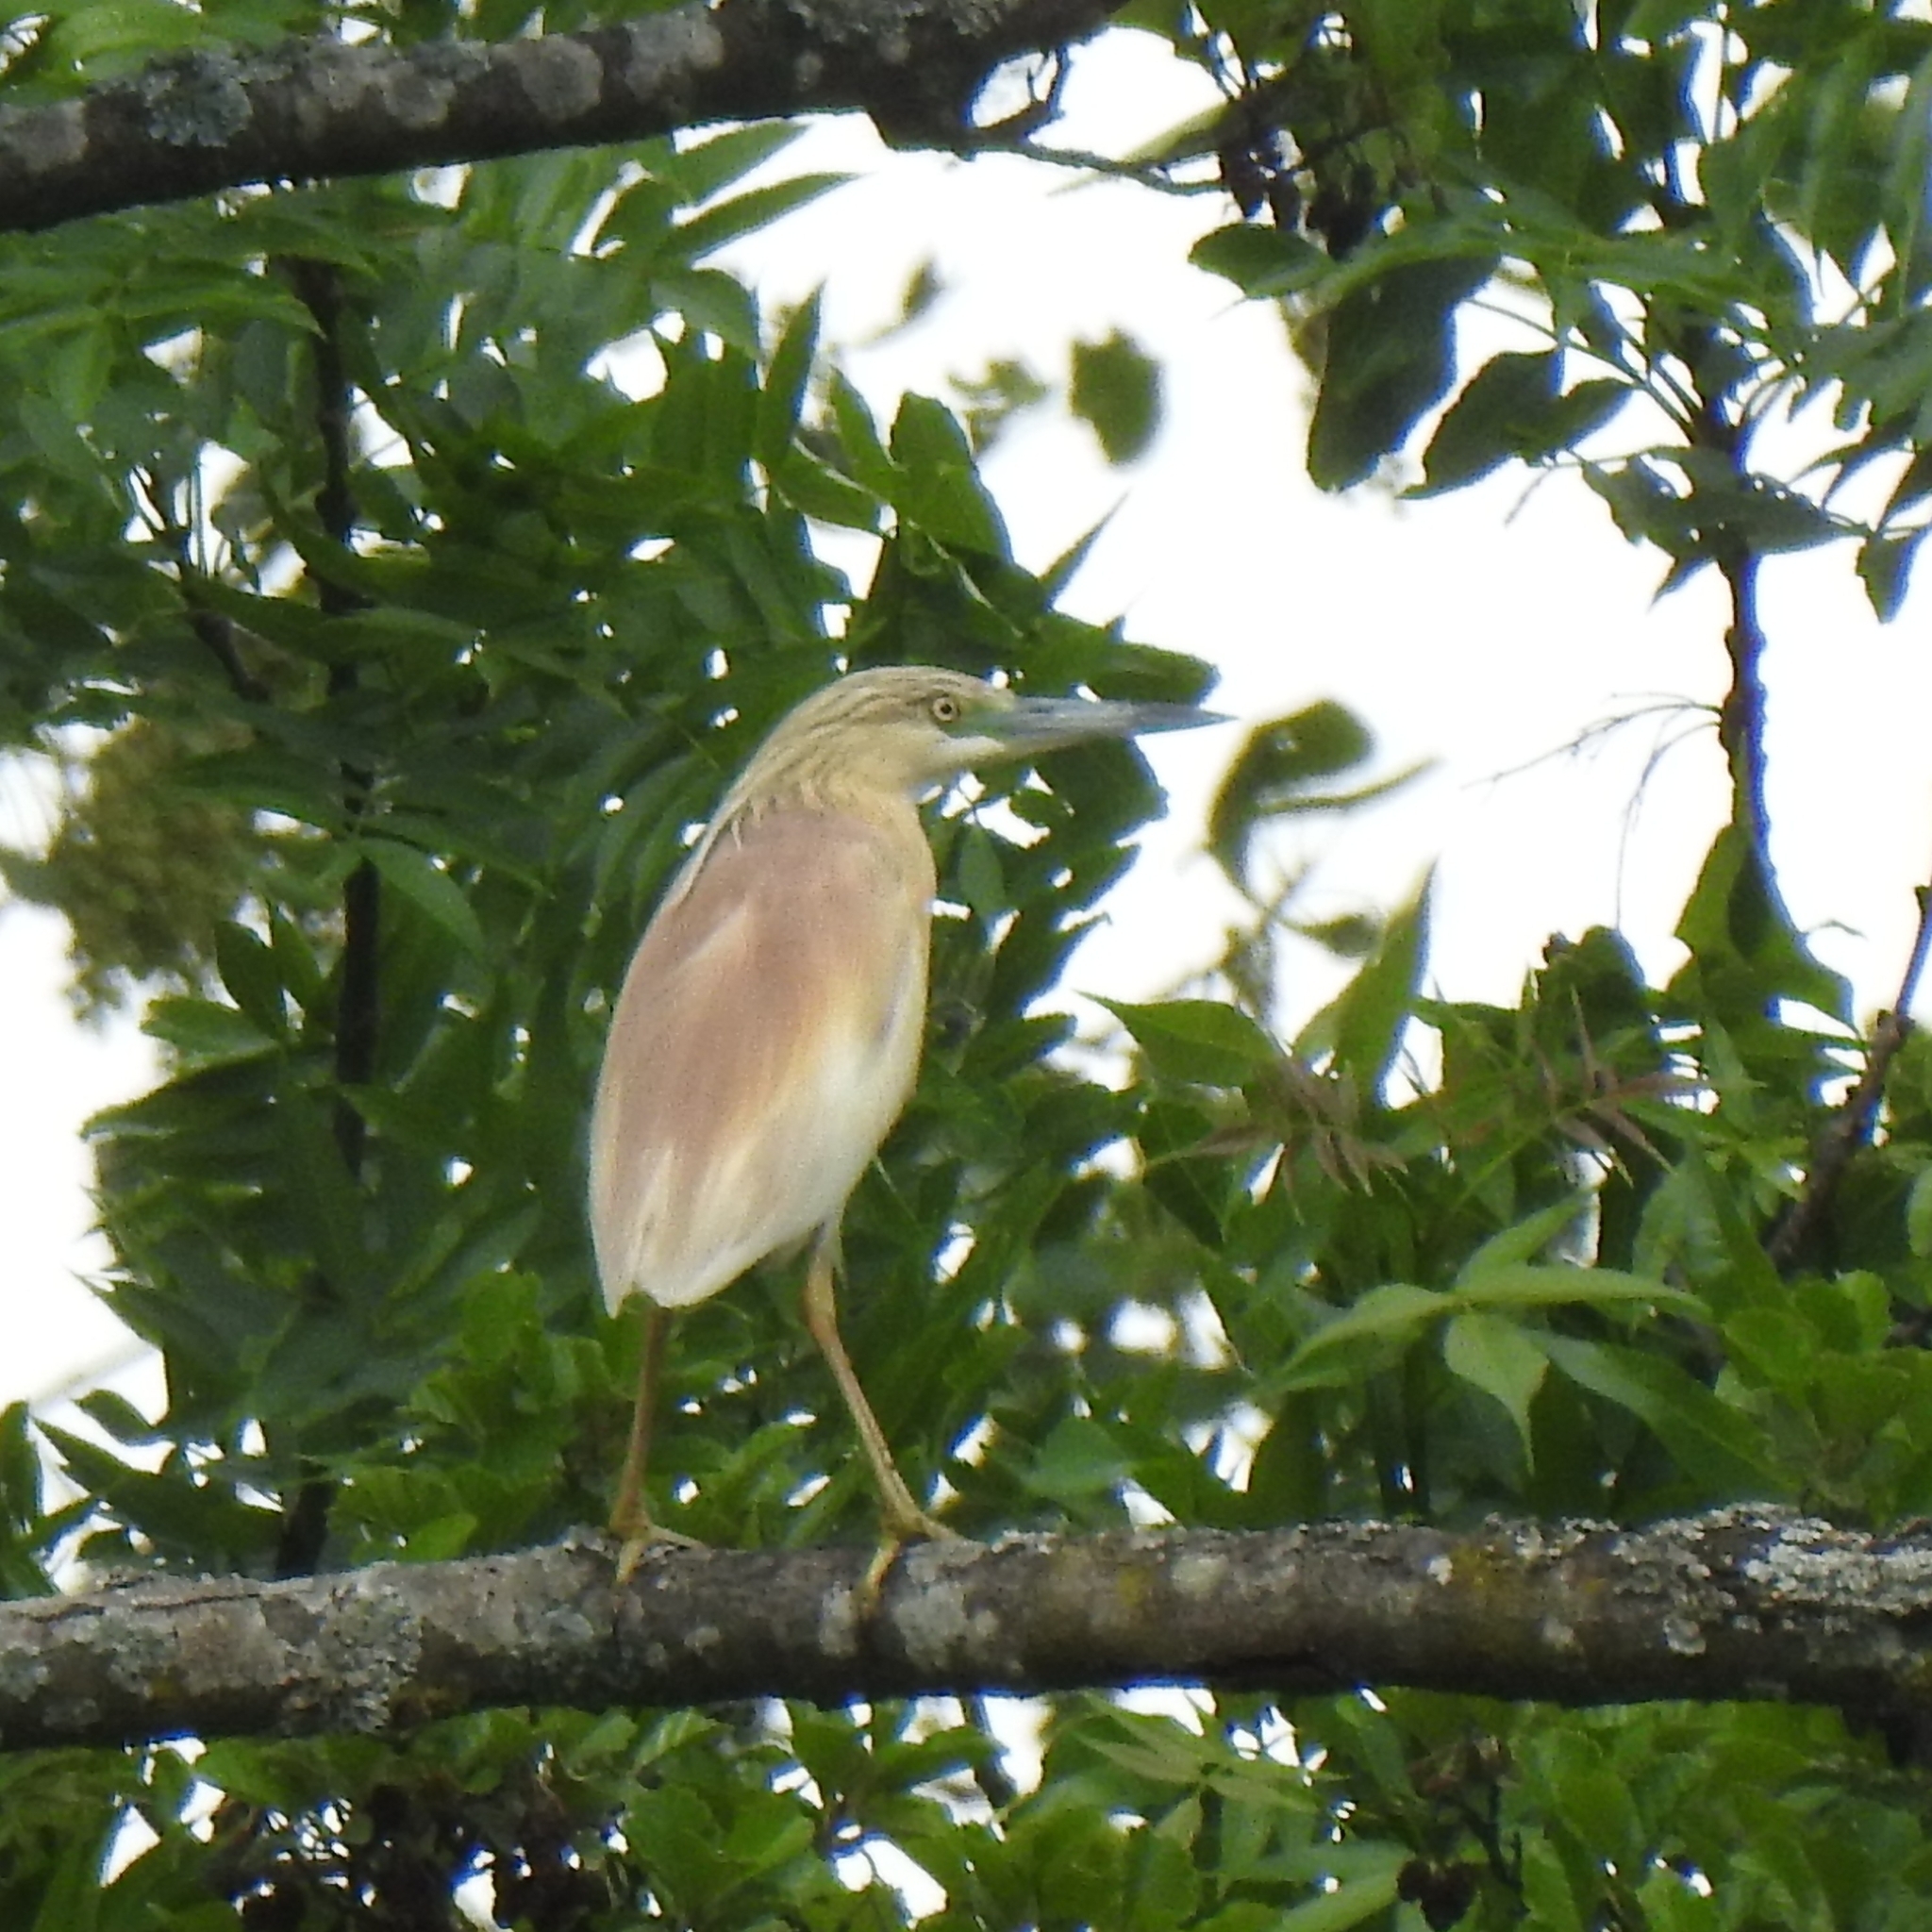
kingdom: Animalia
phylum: Chordata
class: Aves
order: Pelecaniformes
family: Ardeidae
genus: Ardeola
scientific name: Ardeola ralloides
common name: Squacco heron
